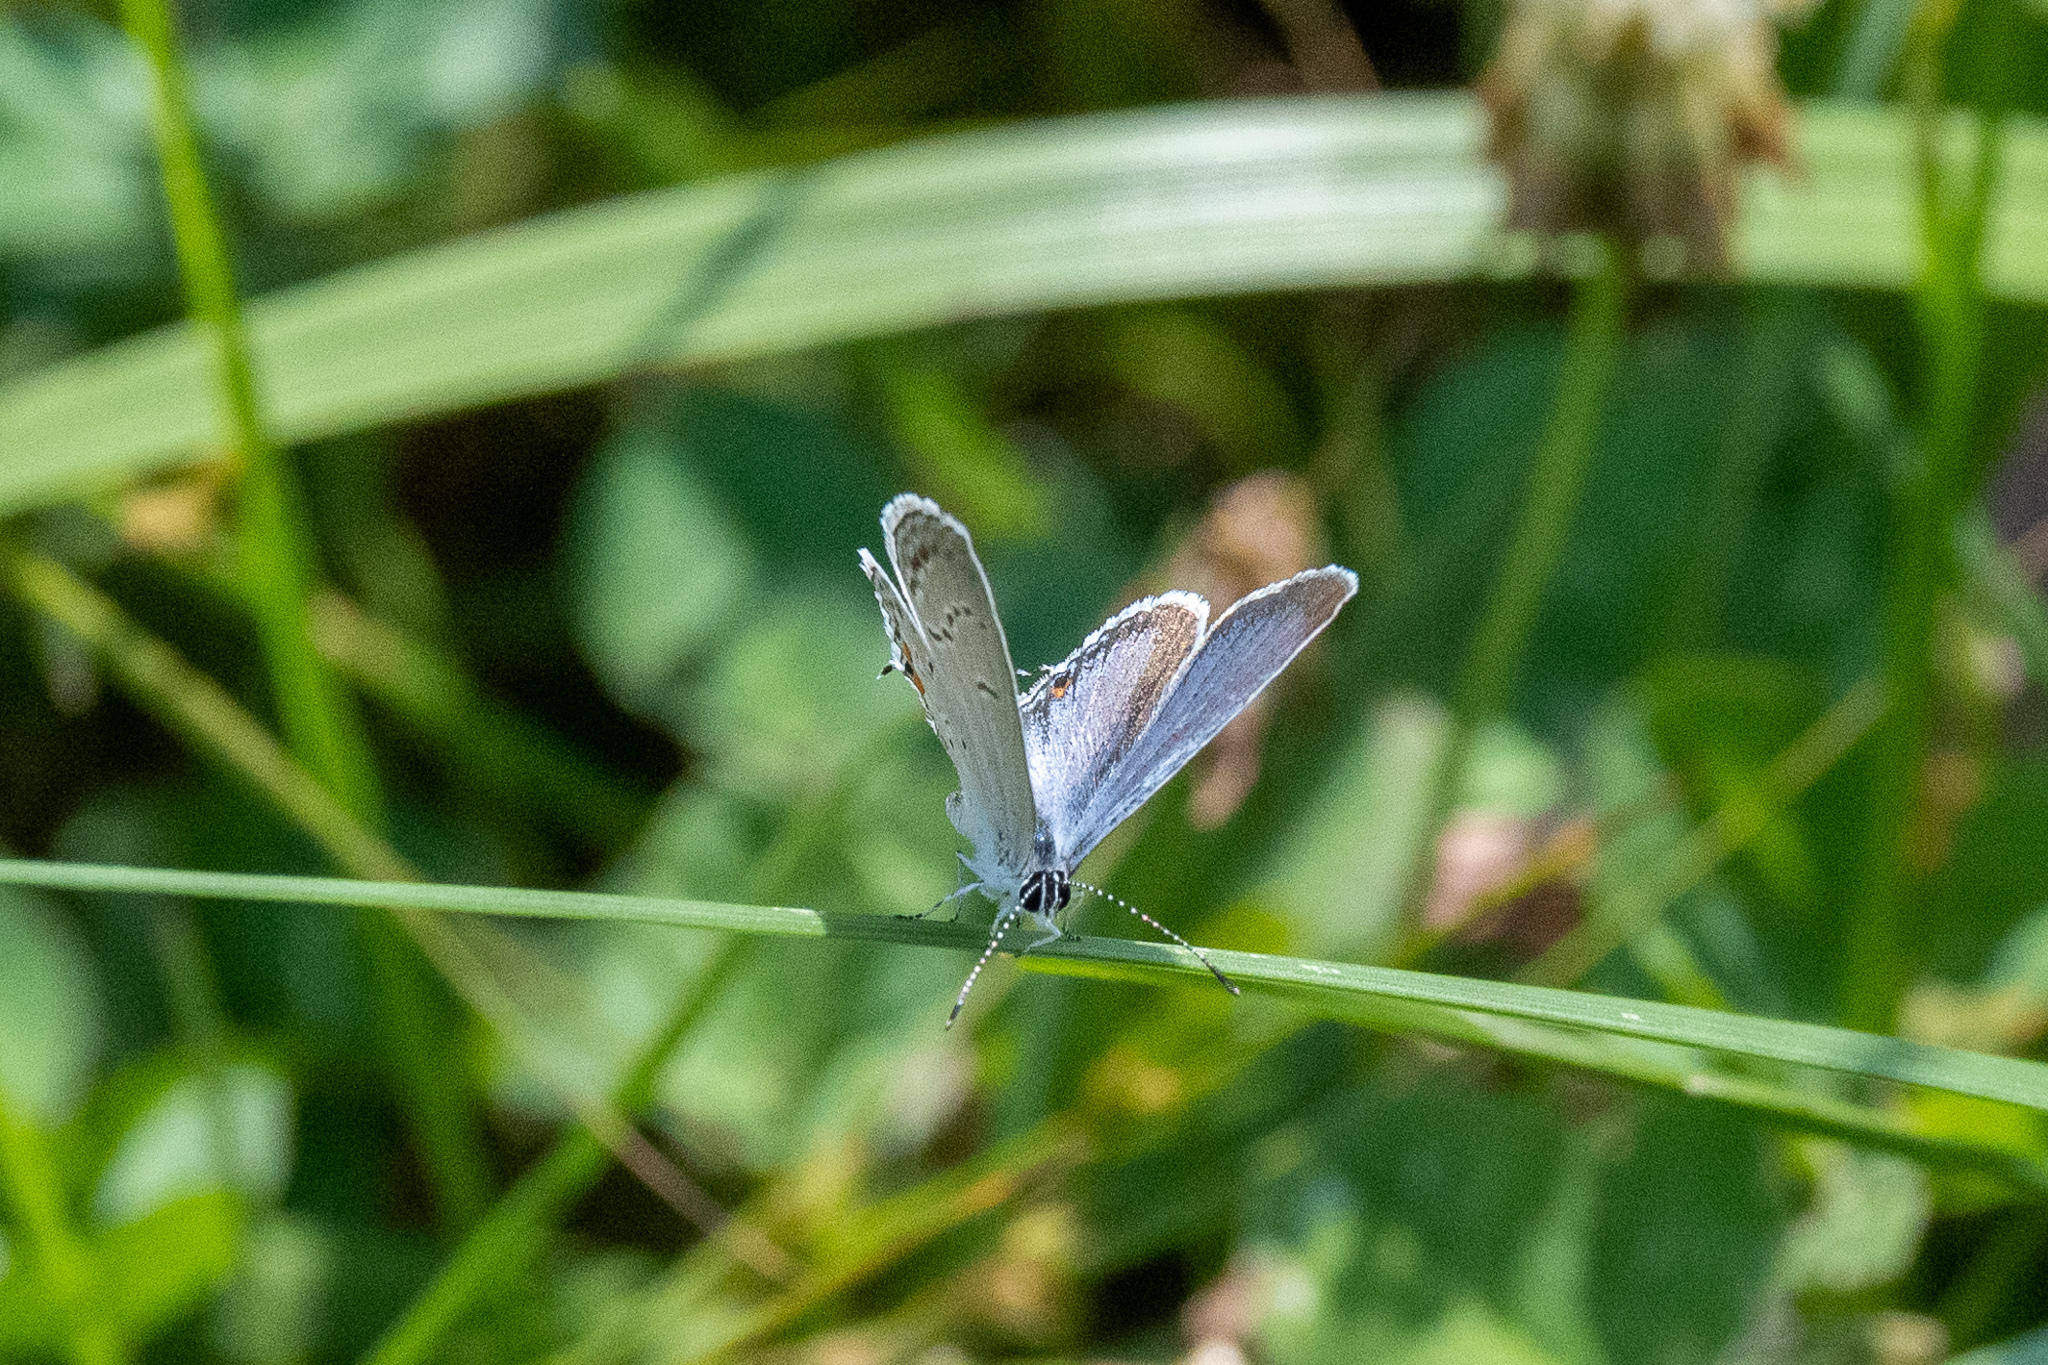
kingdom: Animalia
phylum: Arthropoda
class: Insecta
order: Lepidoptera
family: Lycaenidae
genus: Elkalyce
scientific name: Elkalyce comyntas
